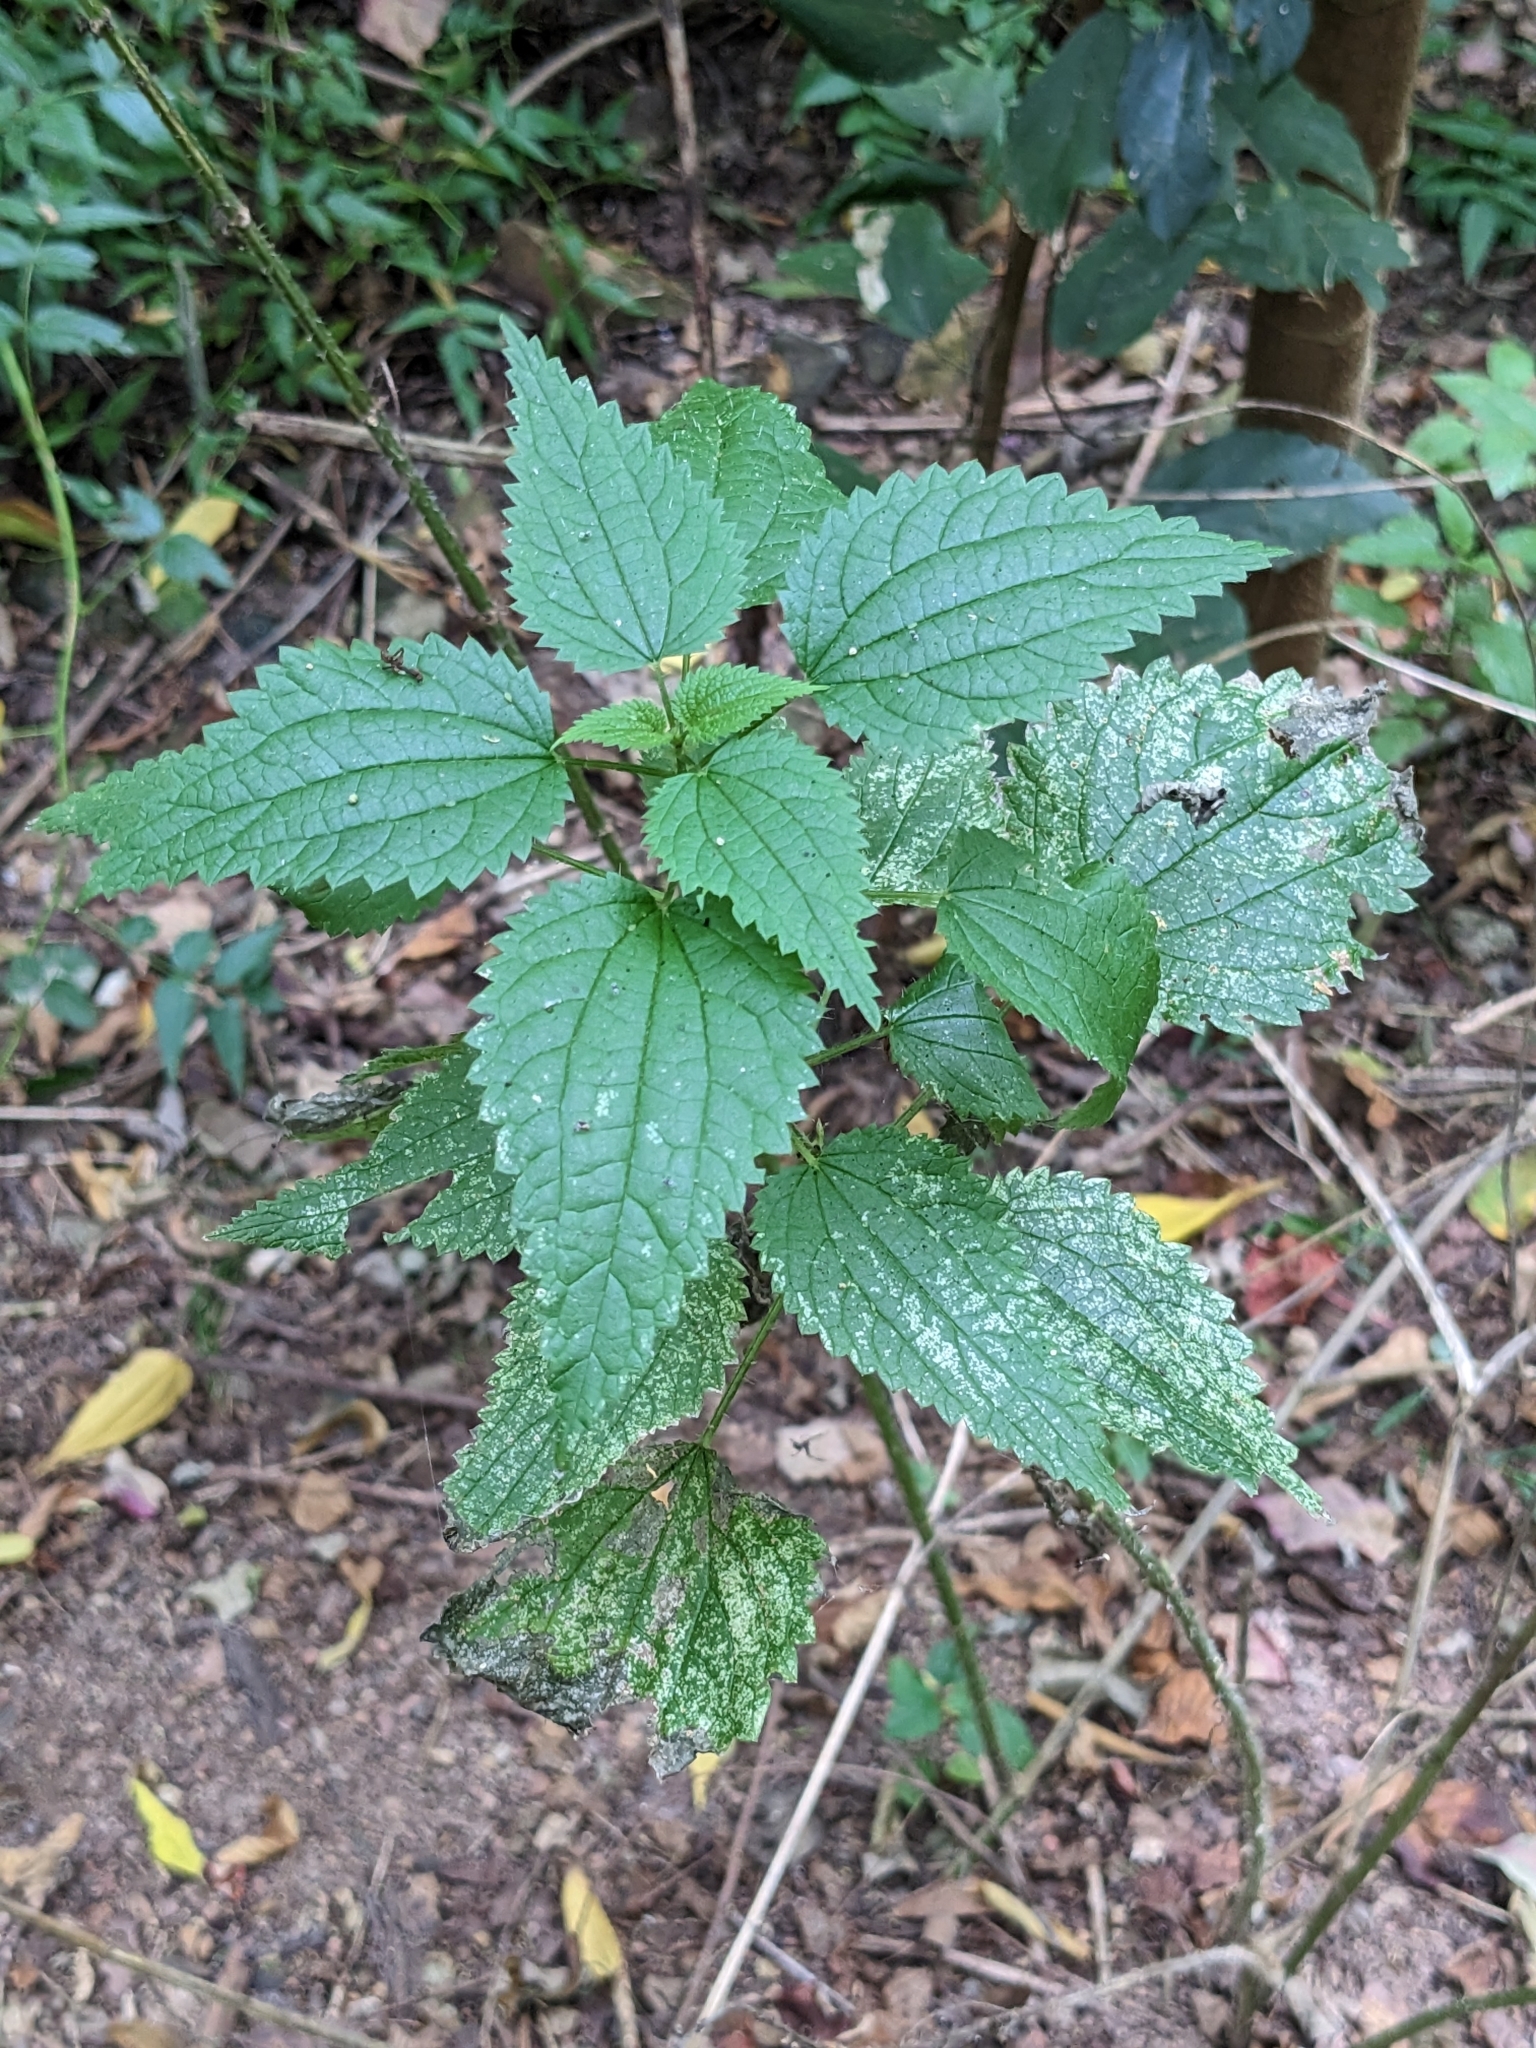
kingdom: Plantae
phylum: Tracheophyta
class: Magnoliopsida
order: Rosales
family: Urticaceae
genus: Urtica
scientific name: Urtica incisa
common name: Scrub nettle
